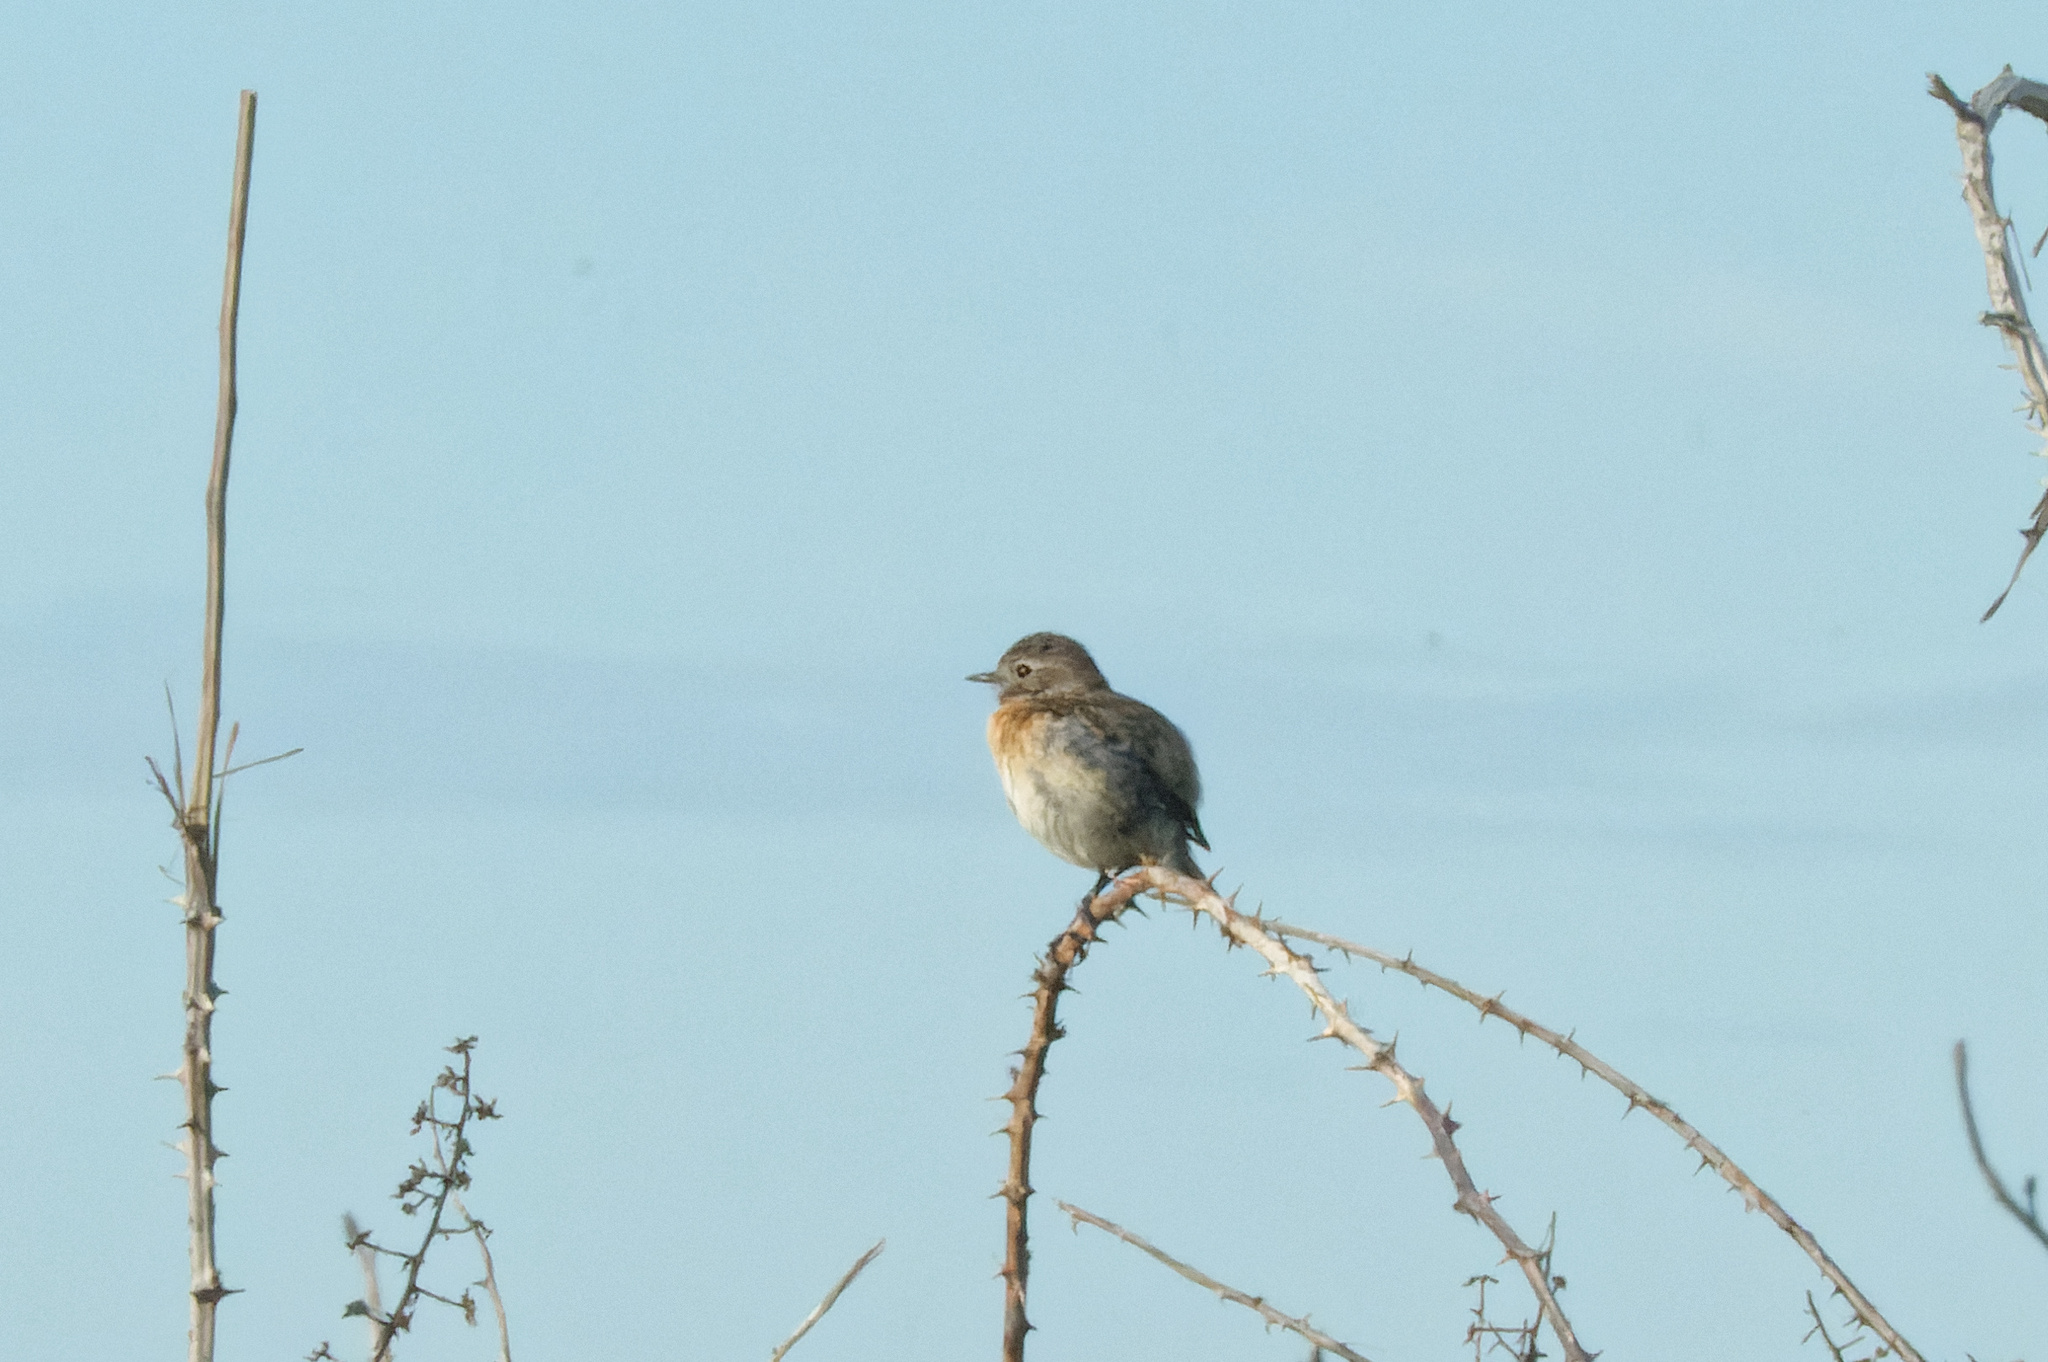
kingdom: Animalia
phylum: Chordata
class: Aves
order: Passeriformes
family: Muscicapidae
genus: Saxicola
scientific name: Saxicola rubicola
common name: European stonechat
